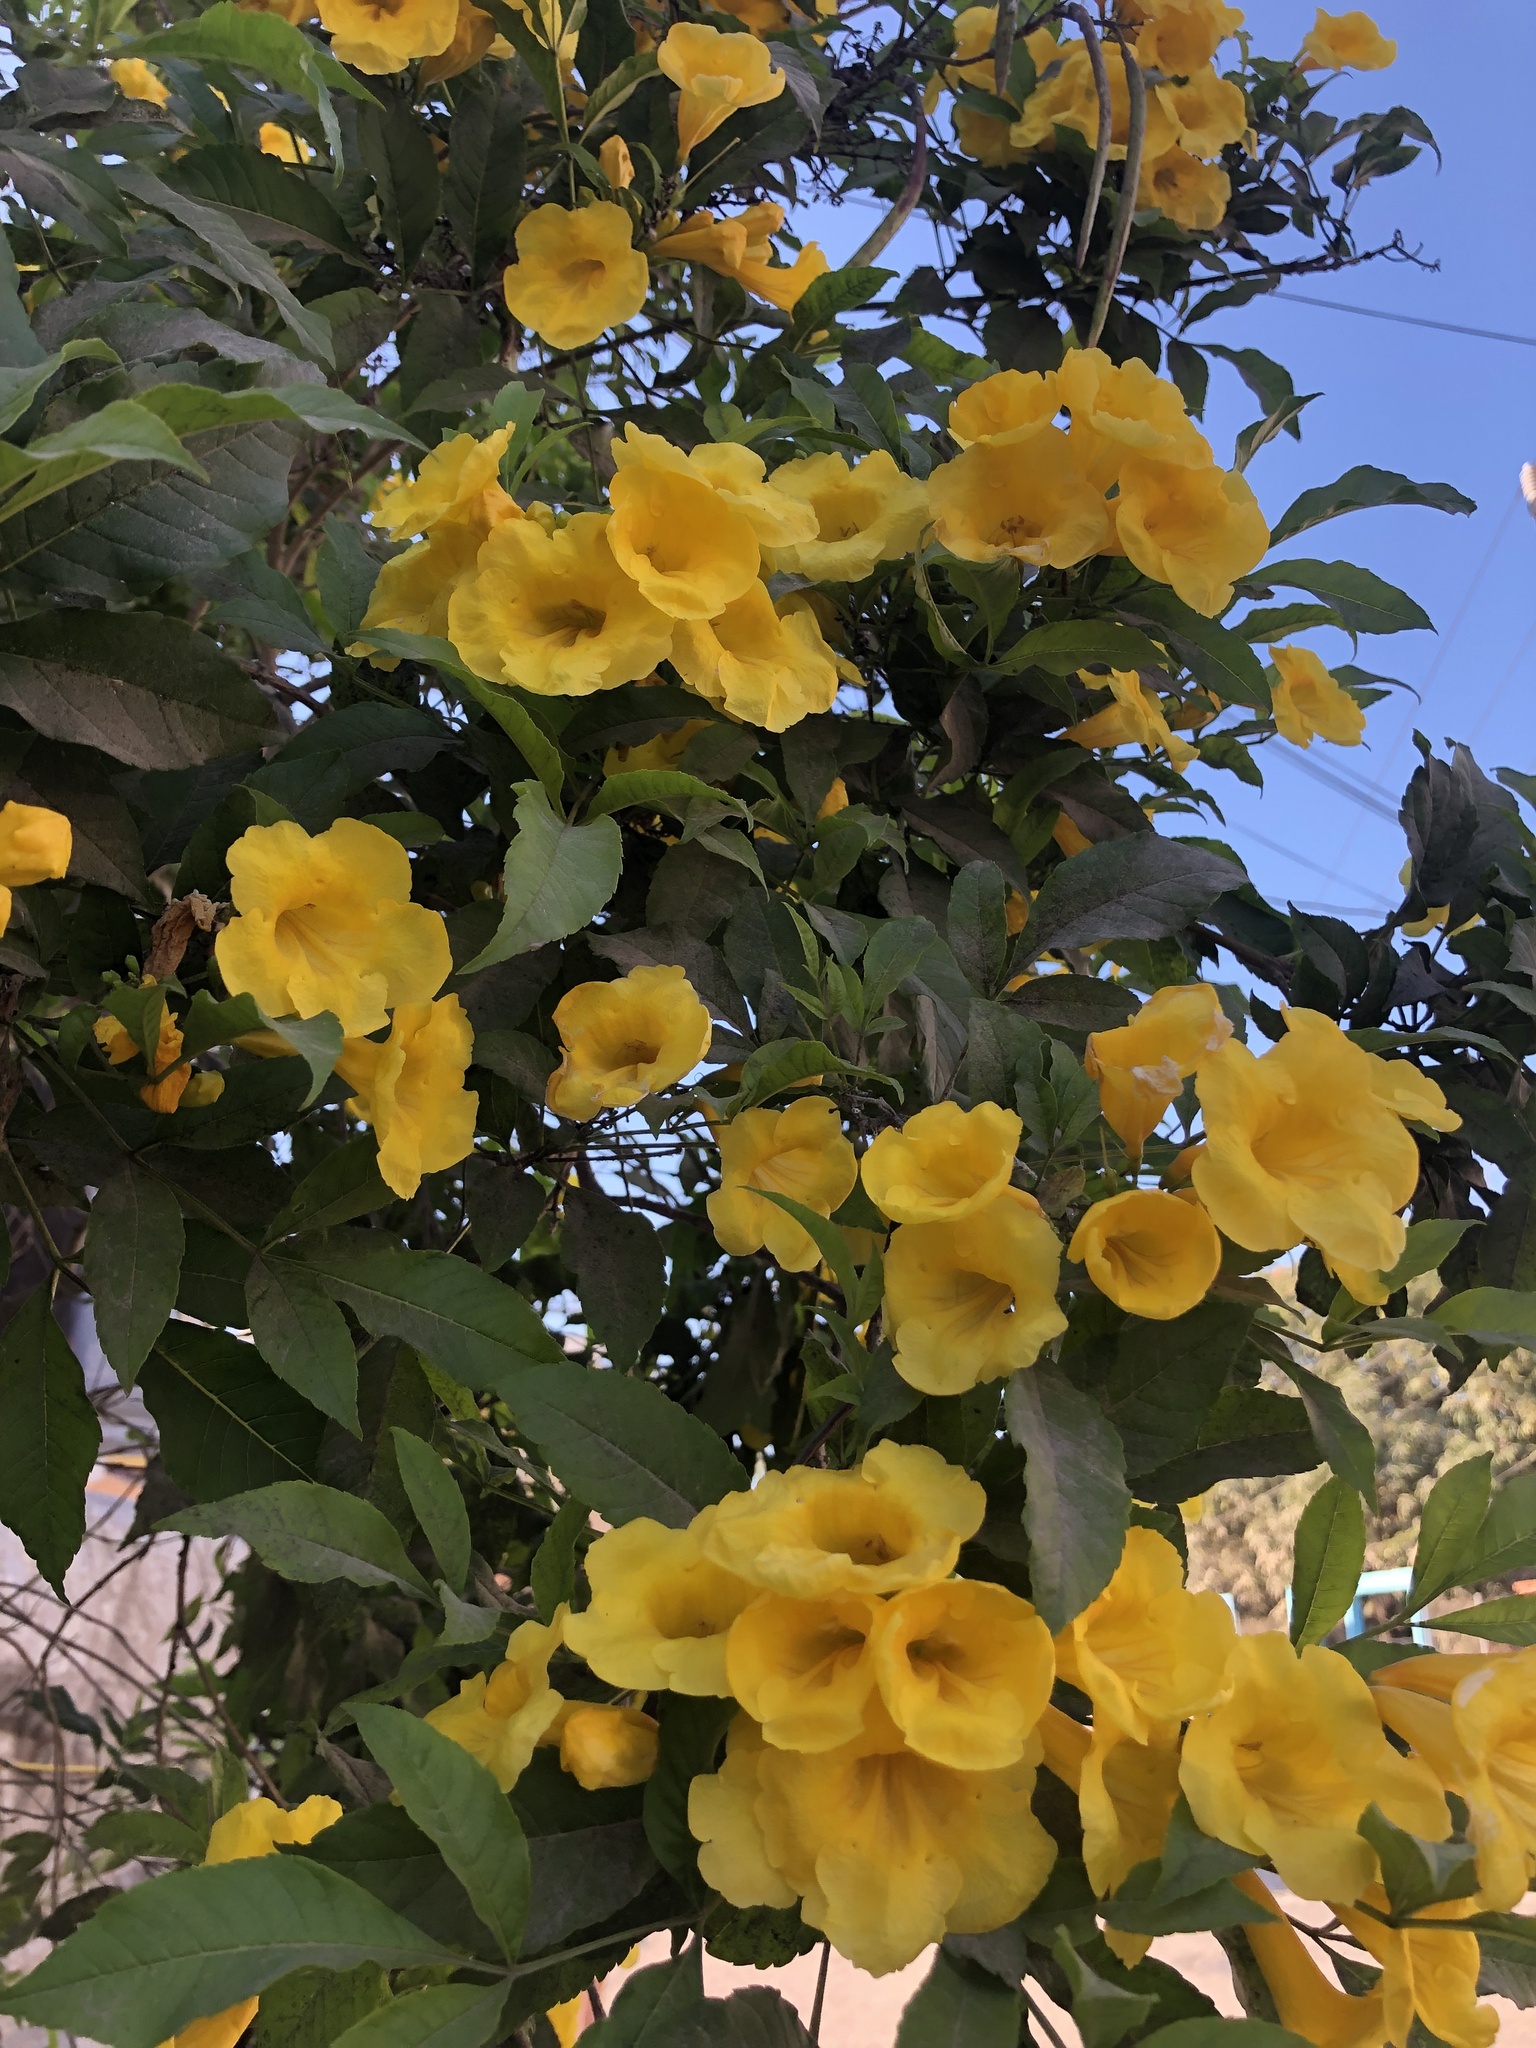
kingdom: Plantae
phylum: Tracheophyta
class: Magnoliopsida
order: Lamiales
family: Bignoniaceae
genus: Tecoma
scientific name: Tecoma stans
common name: Yellow trumpetbush
